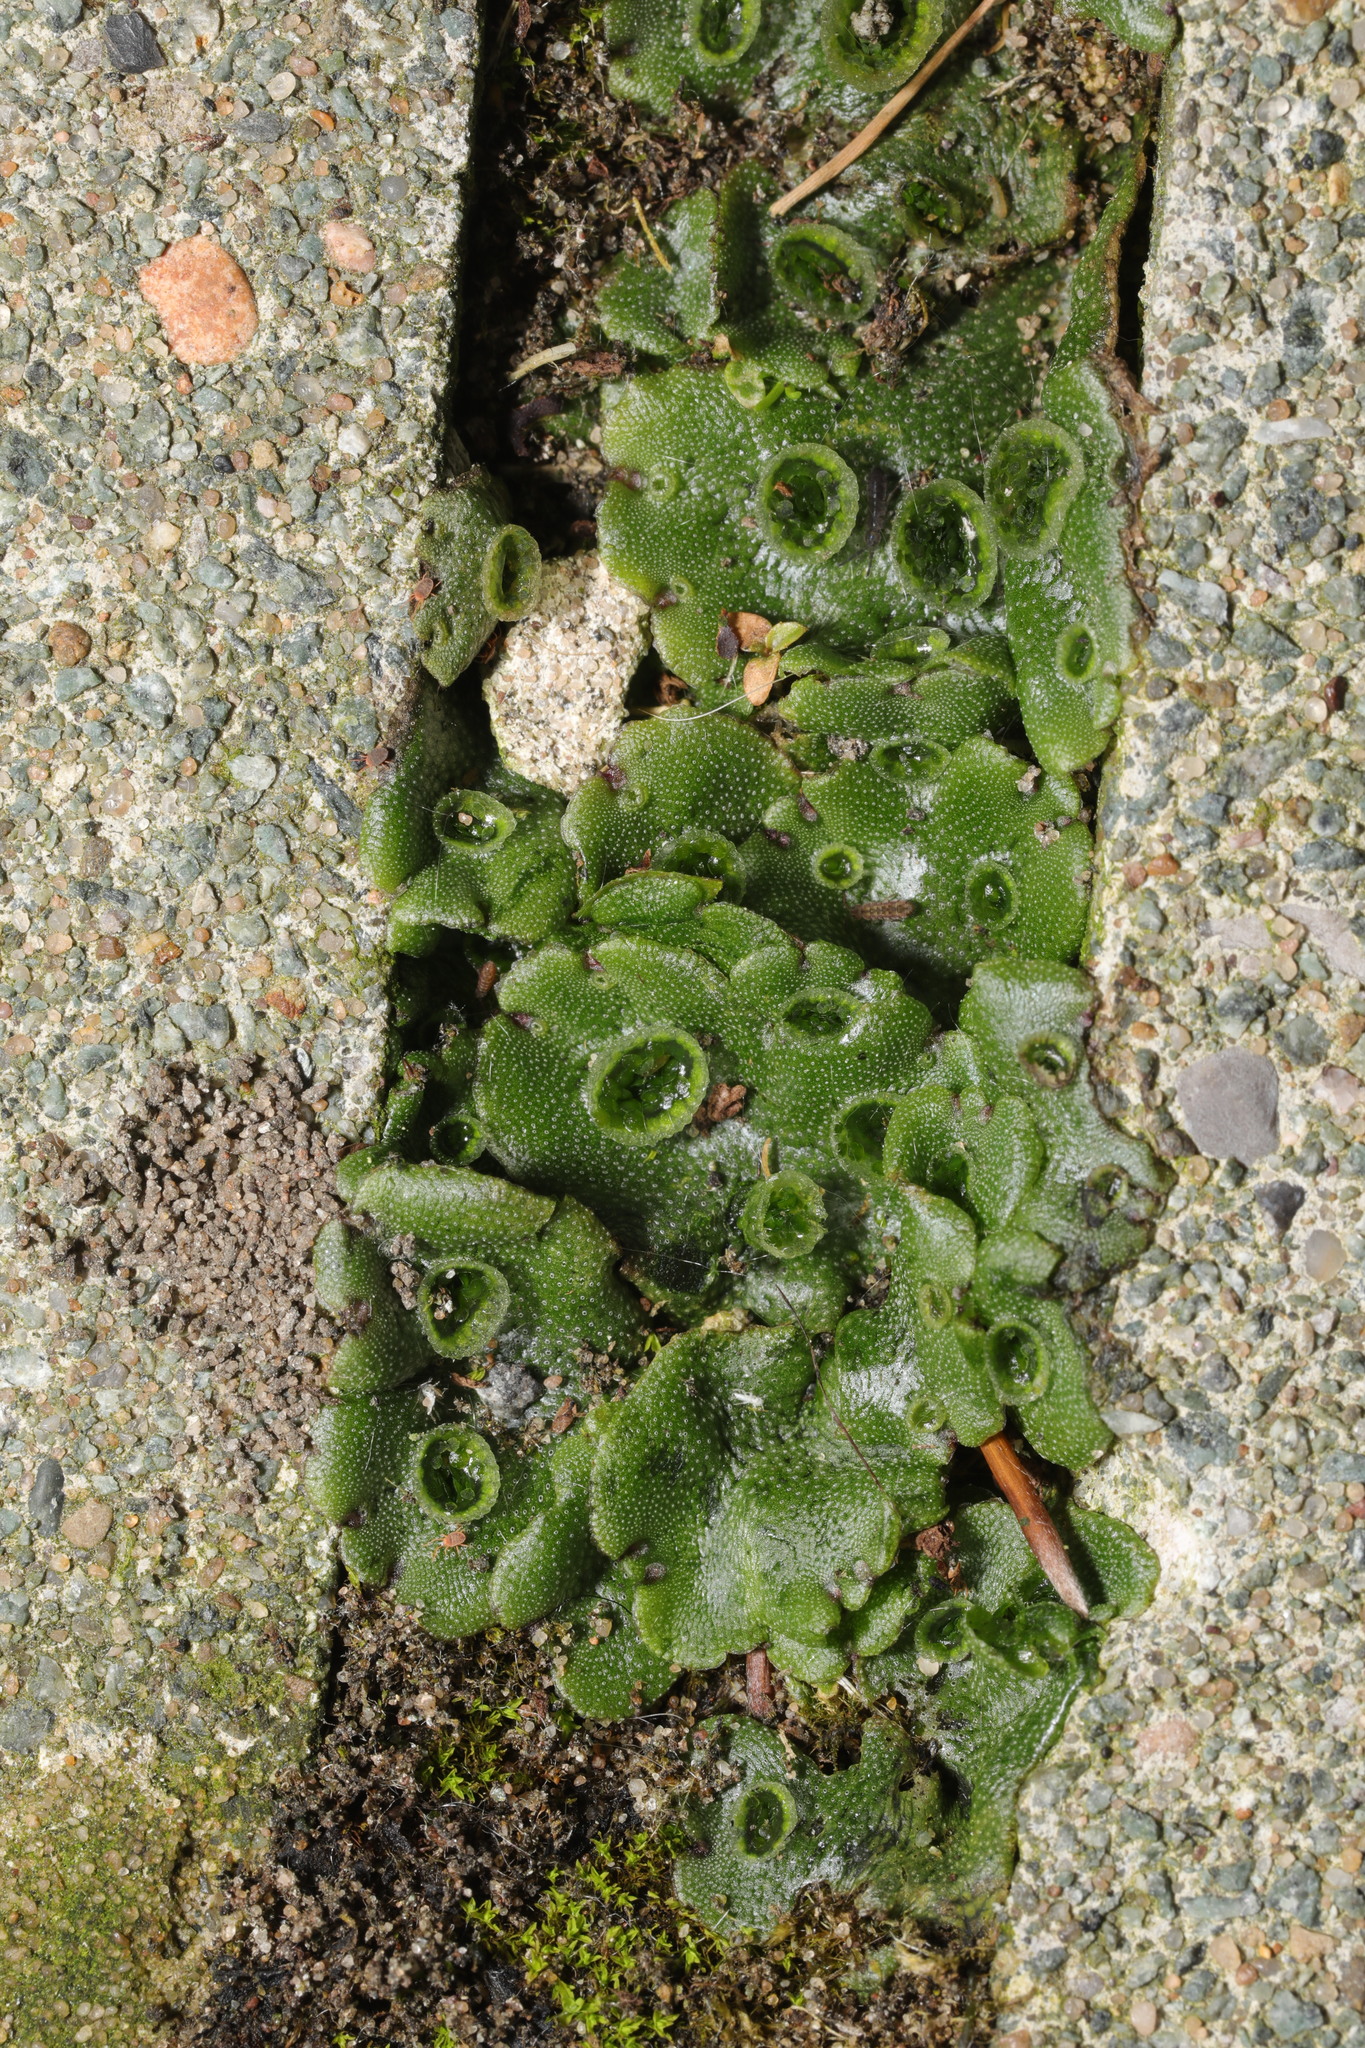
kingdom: Plantae
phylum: Marchantiophyta
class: Marchantiopsida
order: Marchantiales
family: Marchantiaceae
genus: Marchantia
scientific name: Marchantia polymorpha
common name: Common liverwort
